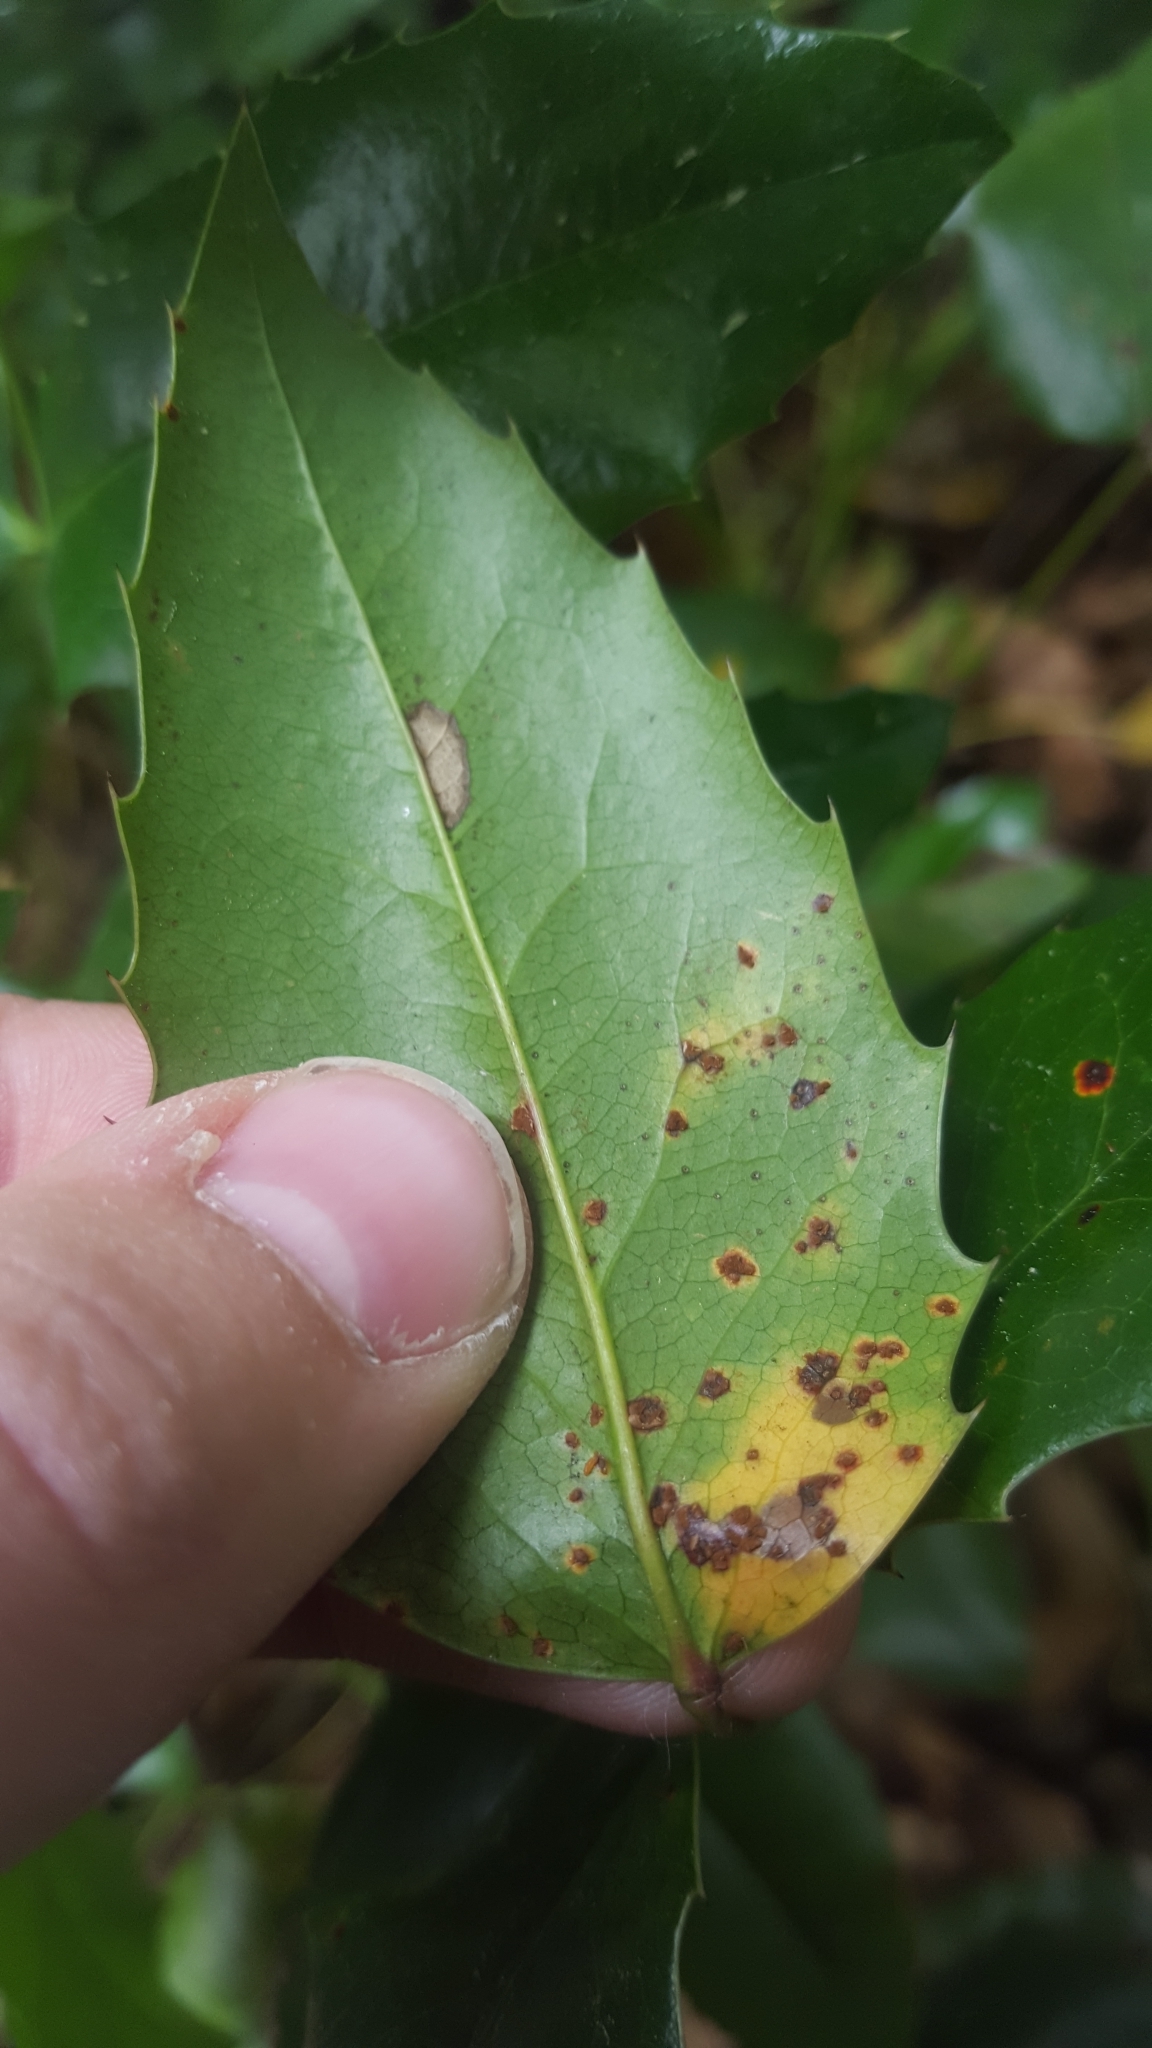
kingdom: Fungi
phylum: Basidiomycota
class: Pucciniomycetes
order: Pucciniales
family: Pucciniaceae
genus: Cumminsiella
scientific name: Cumminsiella mirabilissima
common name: Mahonia rust
